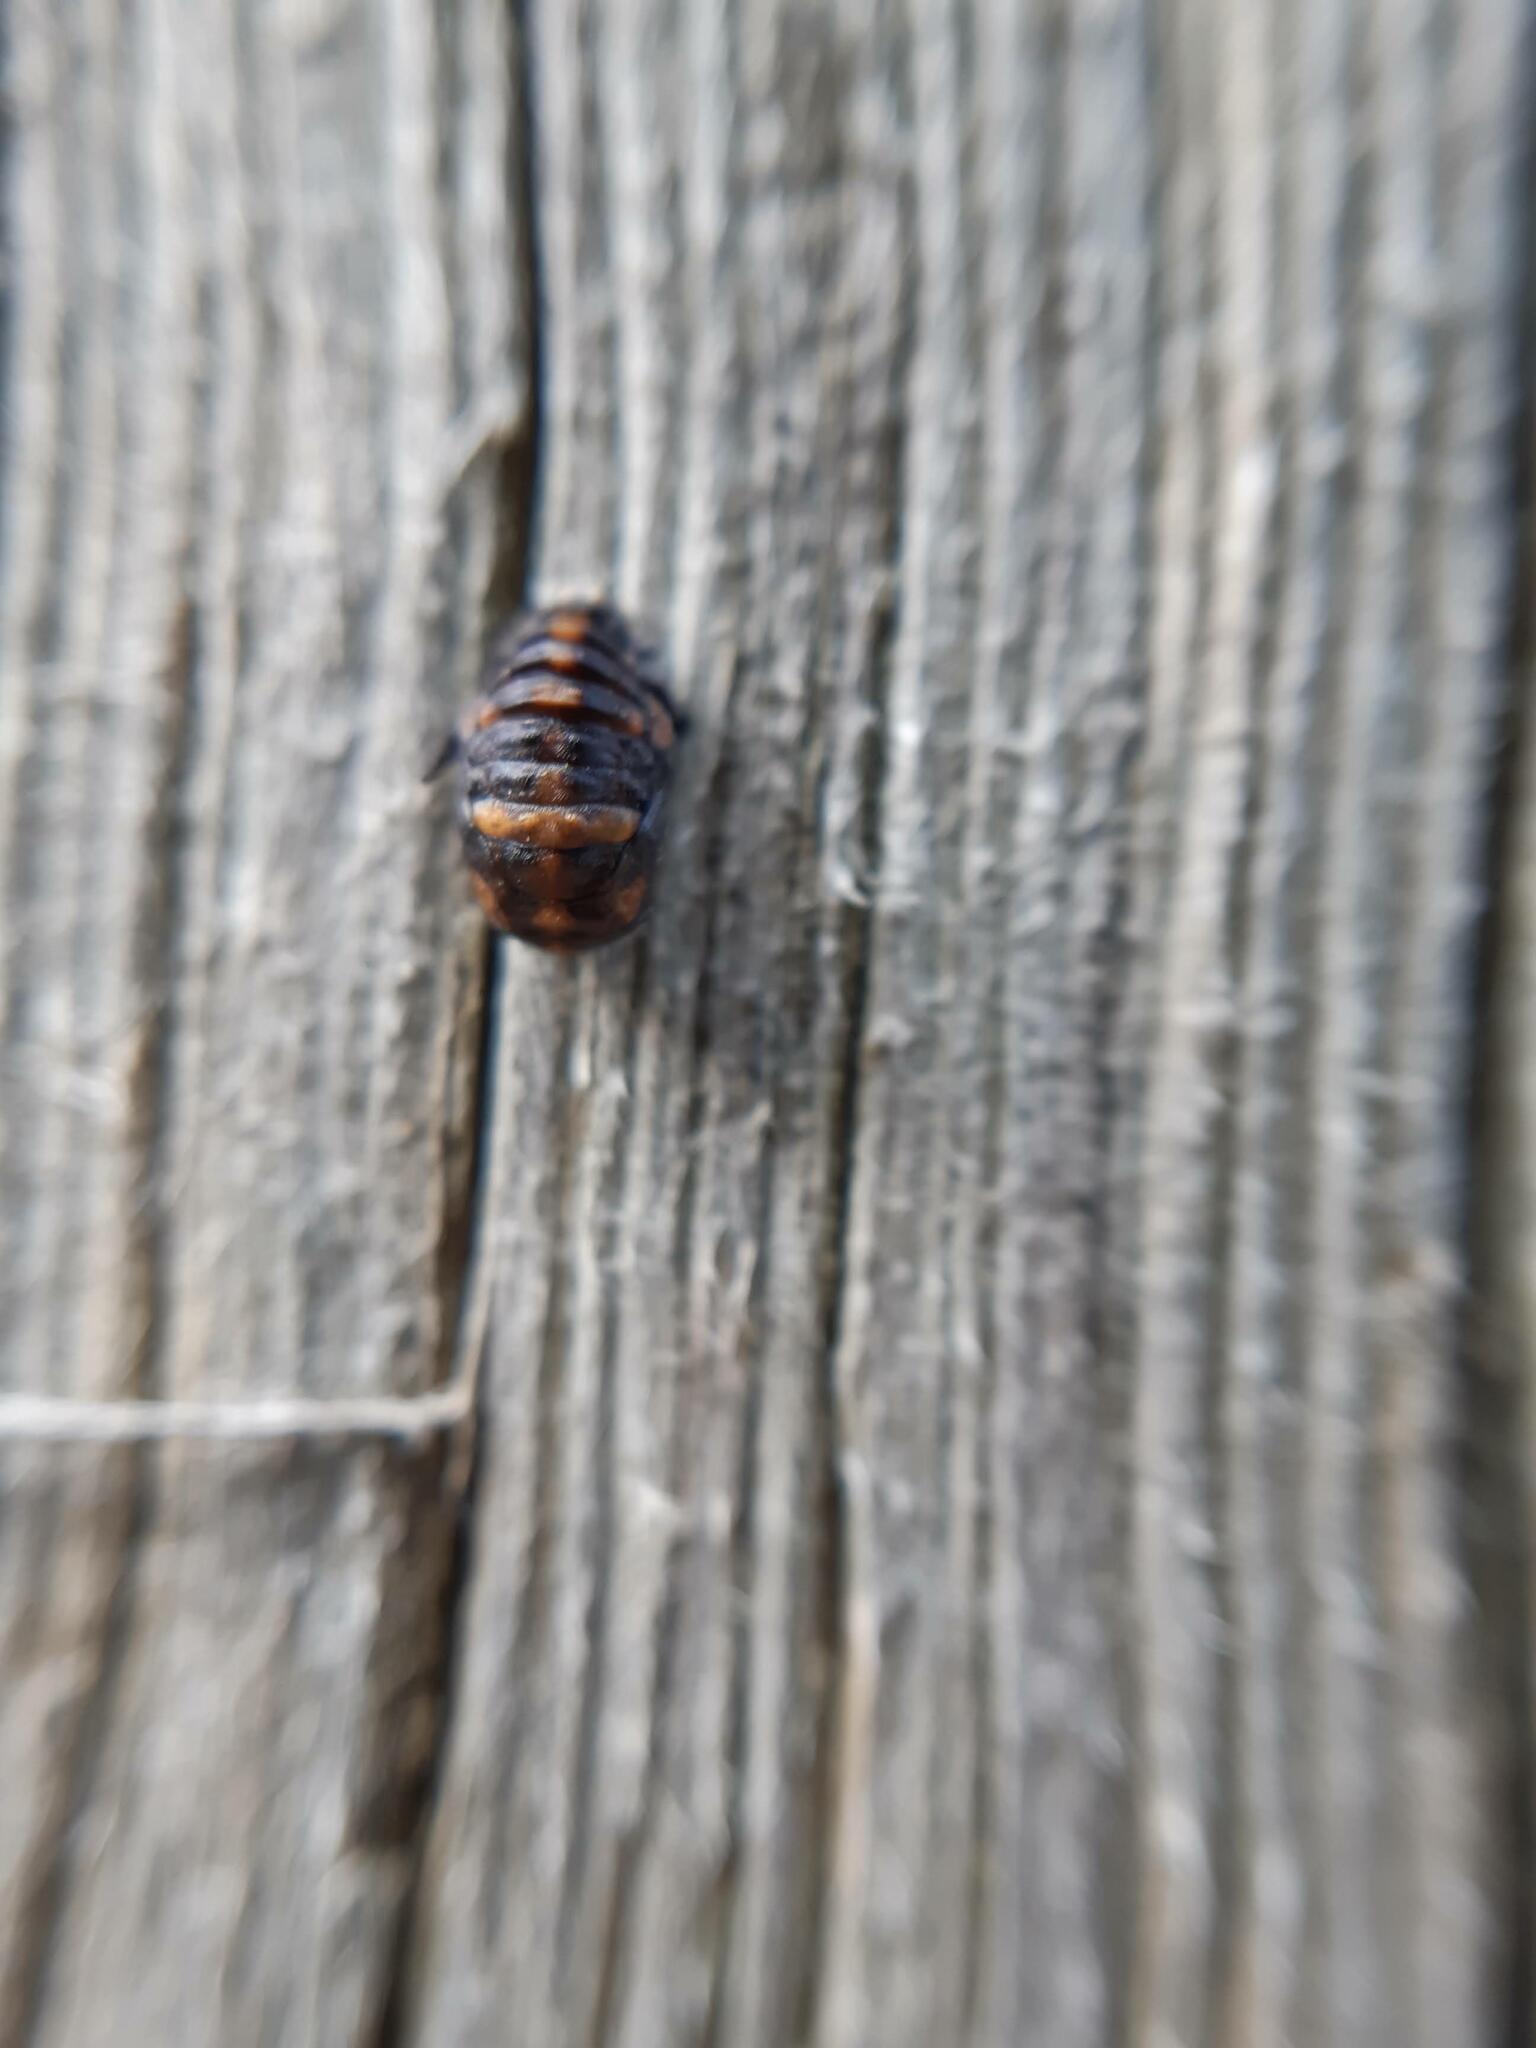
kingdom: Animalia
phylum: Arthropoda
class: Insecta
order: Coleoptera
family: Coccinellidae
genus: Coccinella
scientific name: Coccinella transversalis
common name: Transverse lady beetle
